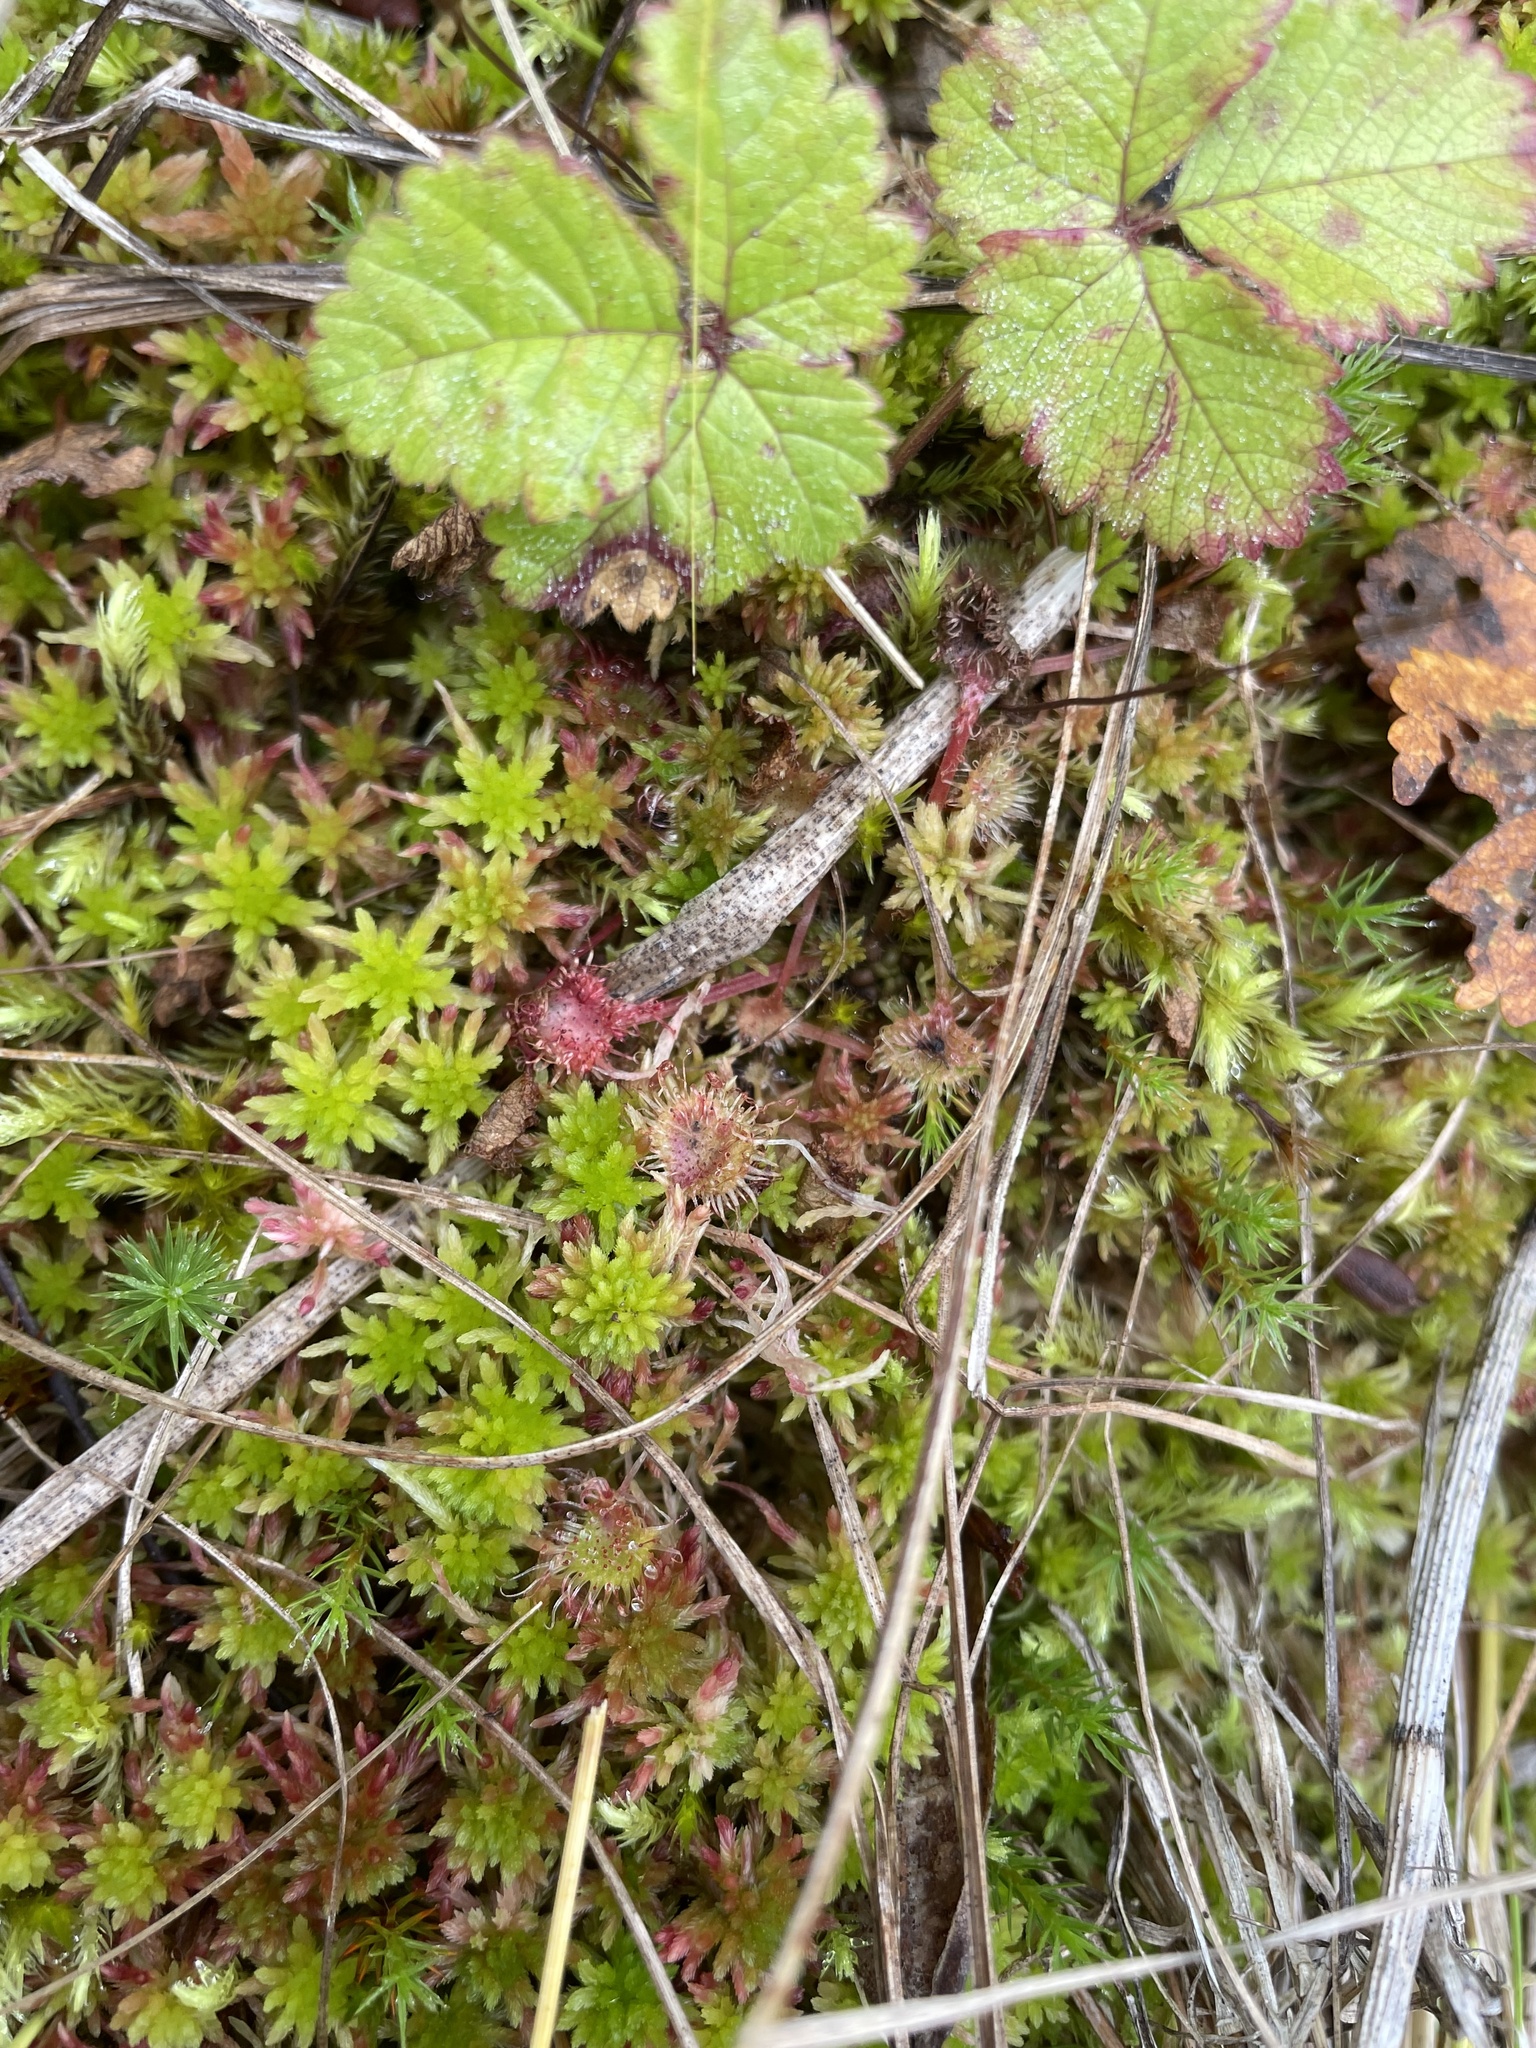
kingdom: Plantae
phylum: Tracheophyta
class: Magnoliopsida
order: Caryophyllales
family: Droseraceae
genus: Drosera
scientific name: Drosera rotundifolia
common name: Round-leaved sundew
